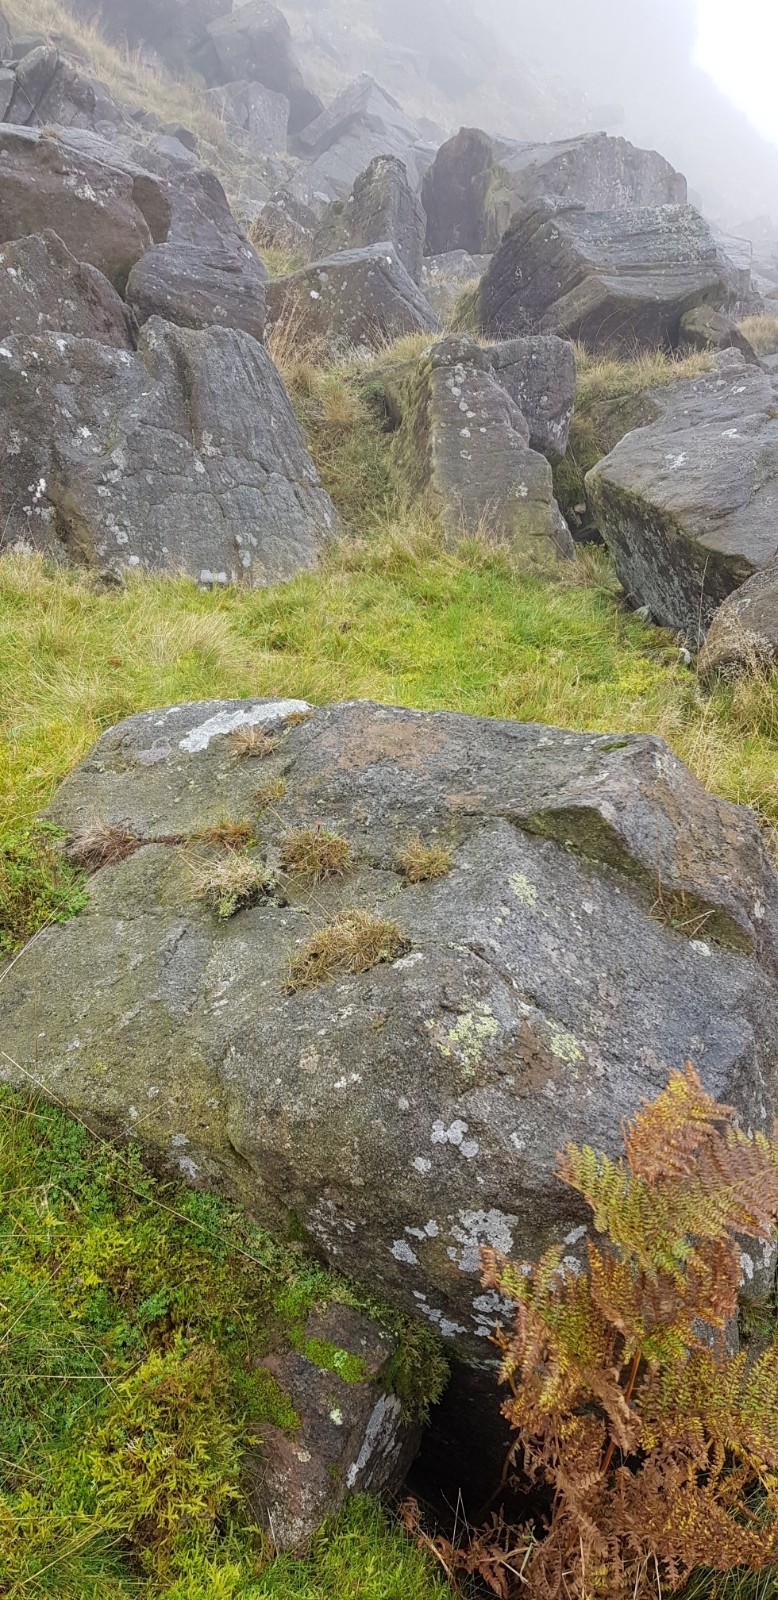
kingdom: Plantae
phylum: Marchantiophyta
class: Jungermanniopsida
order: Jungermanniales
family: Lophoziaceae
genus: Lophozia
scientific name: Lophozia ventricosa
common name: Tumid notchwort
